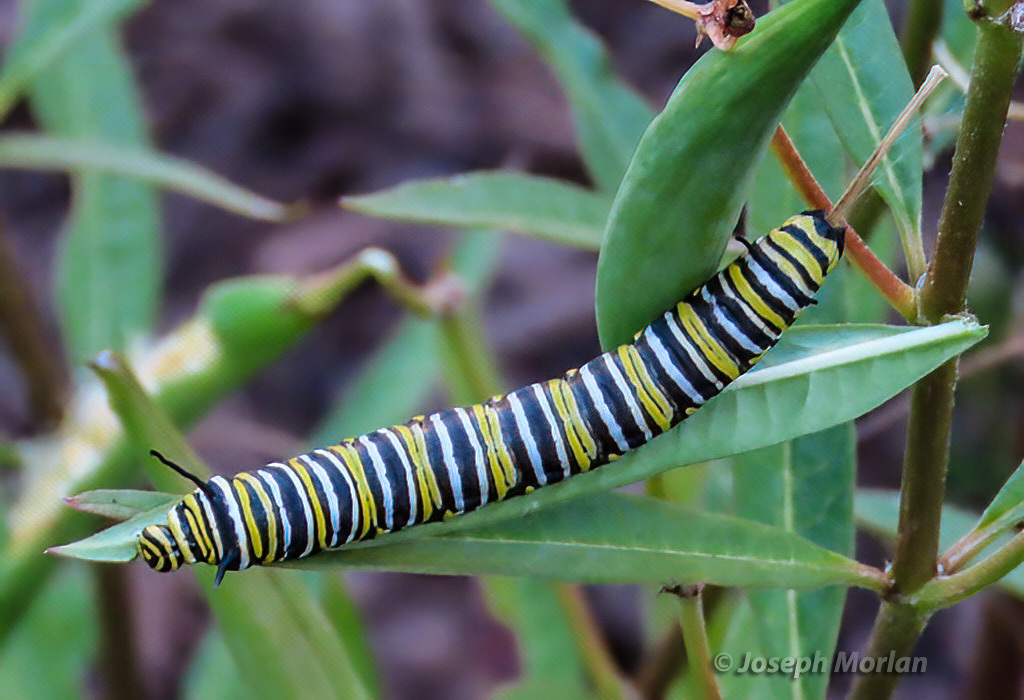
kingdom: Animalia
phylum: Arthropoda
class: Insecta
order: Lepidoptera
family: Nymphalidae
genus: Danaus
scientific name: Danaus plexippus
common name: Monarch
